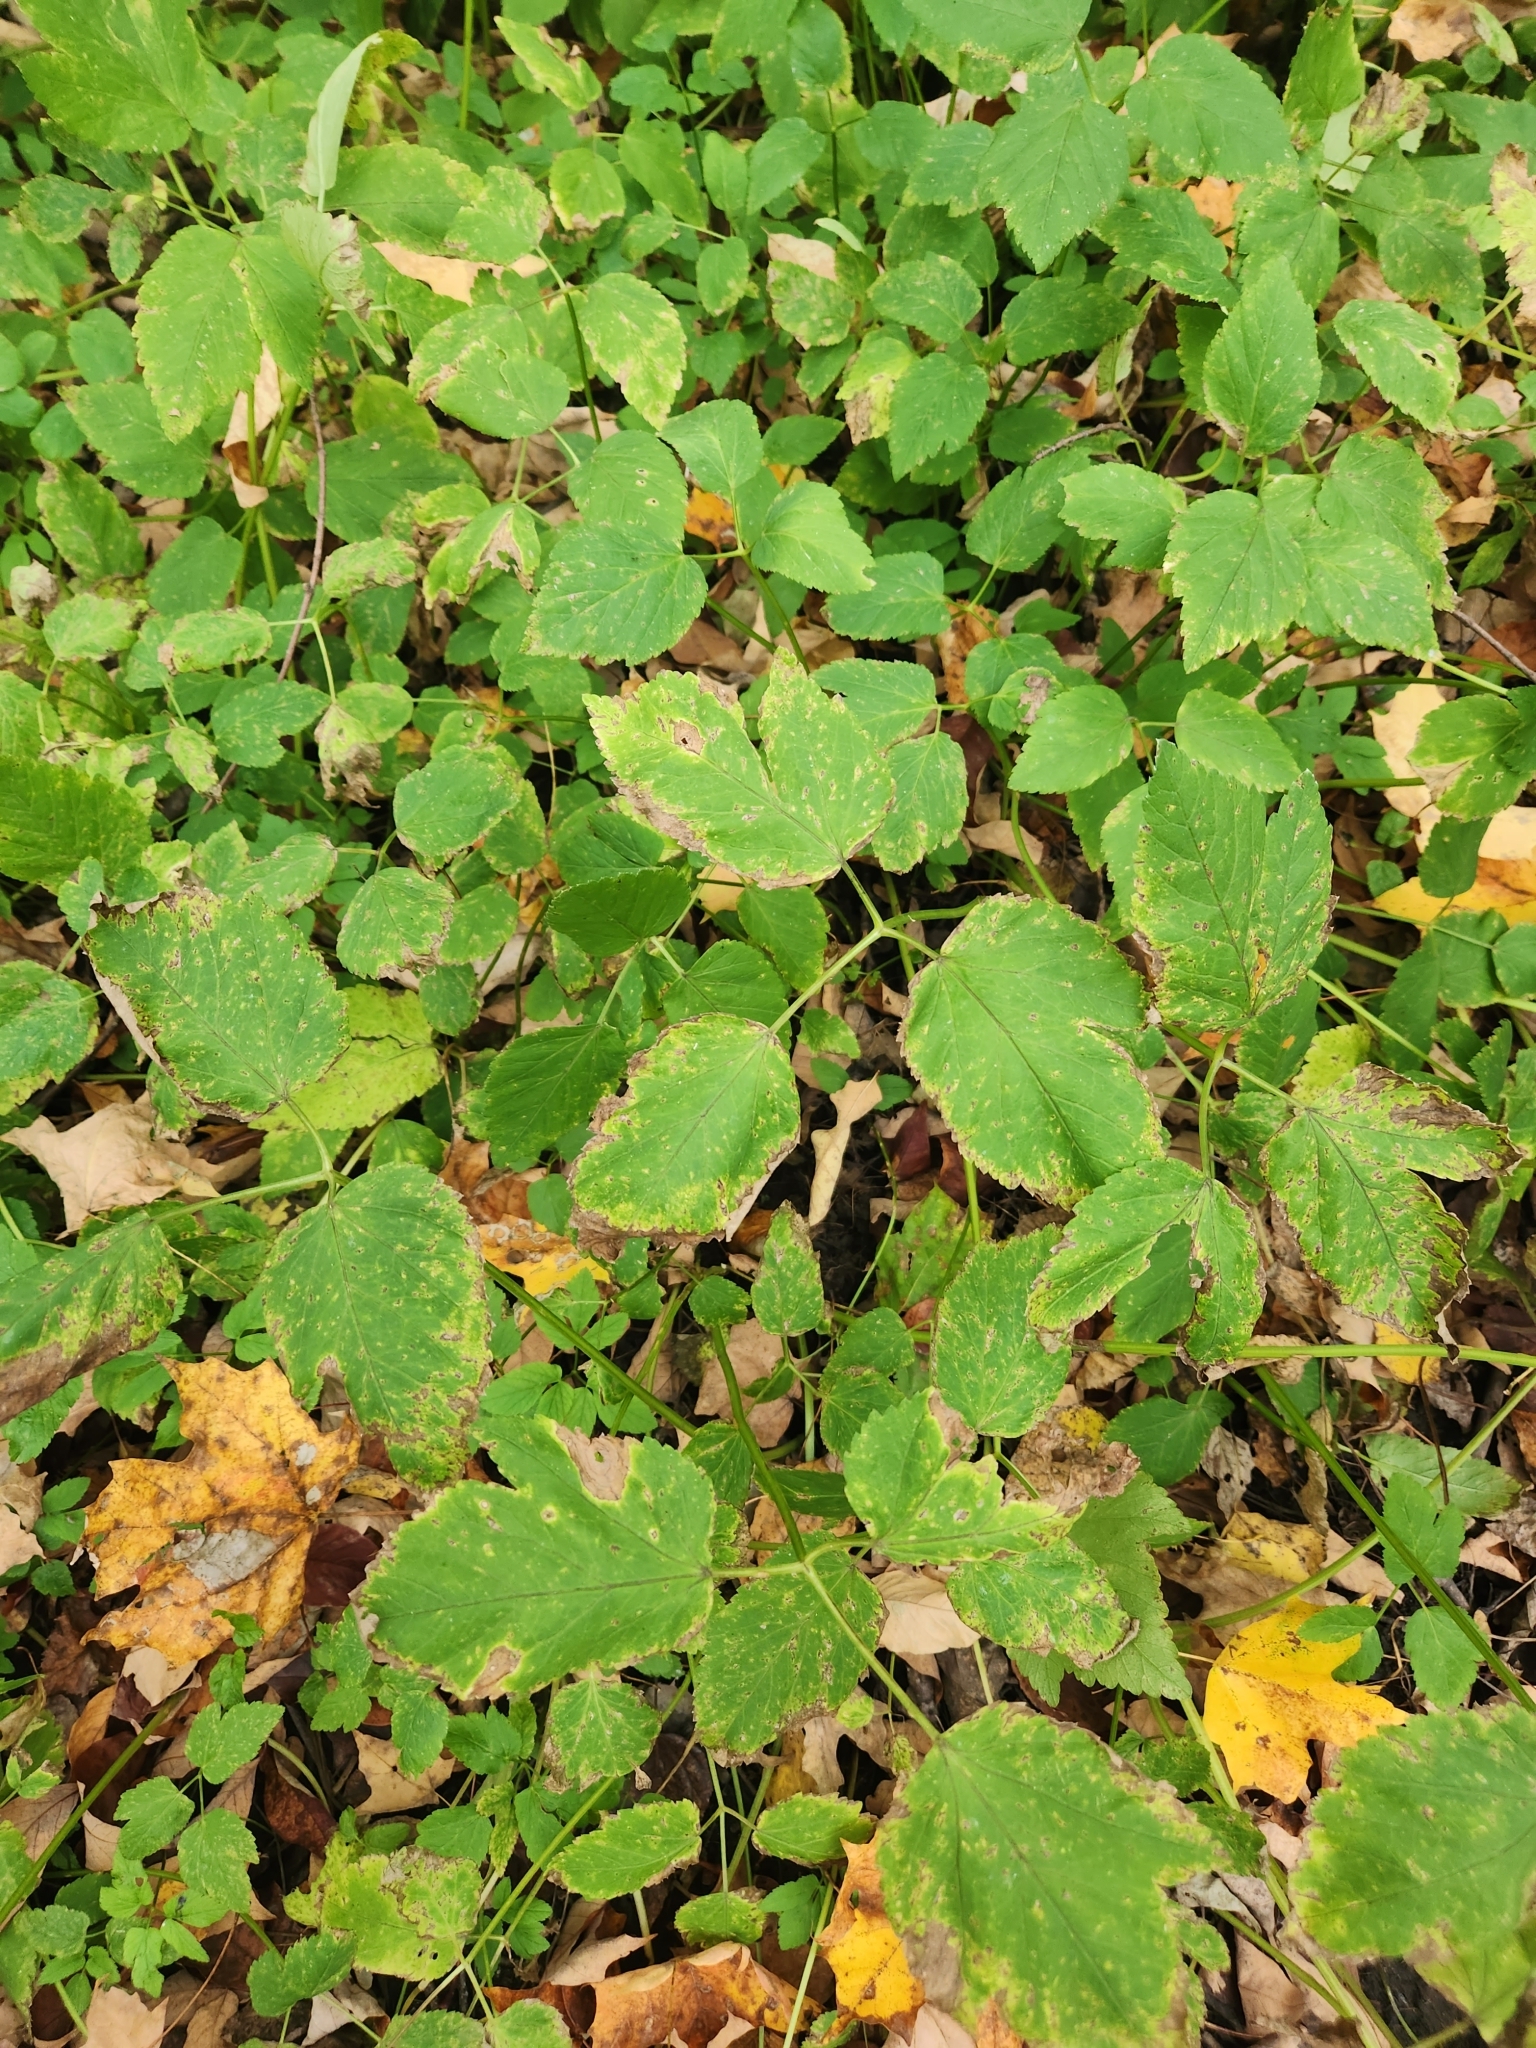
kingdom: Plantae
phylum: Tracheophyta
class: Magnoliopsida
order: Apiales
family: Apiaceae
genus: Aegopodium
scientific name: Aegopodium podagraria
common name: Ground-elder
